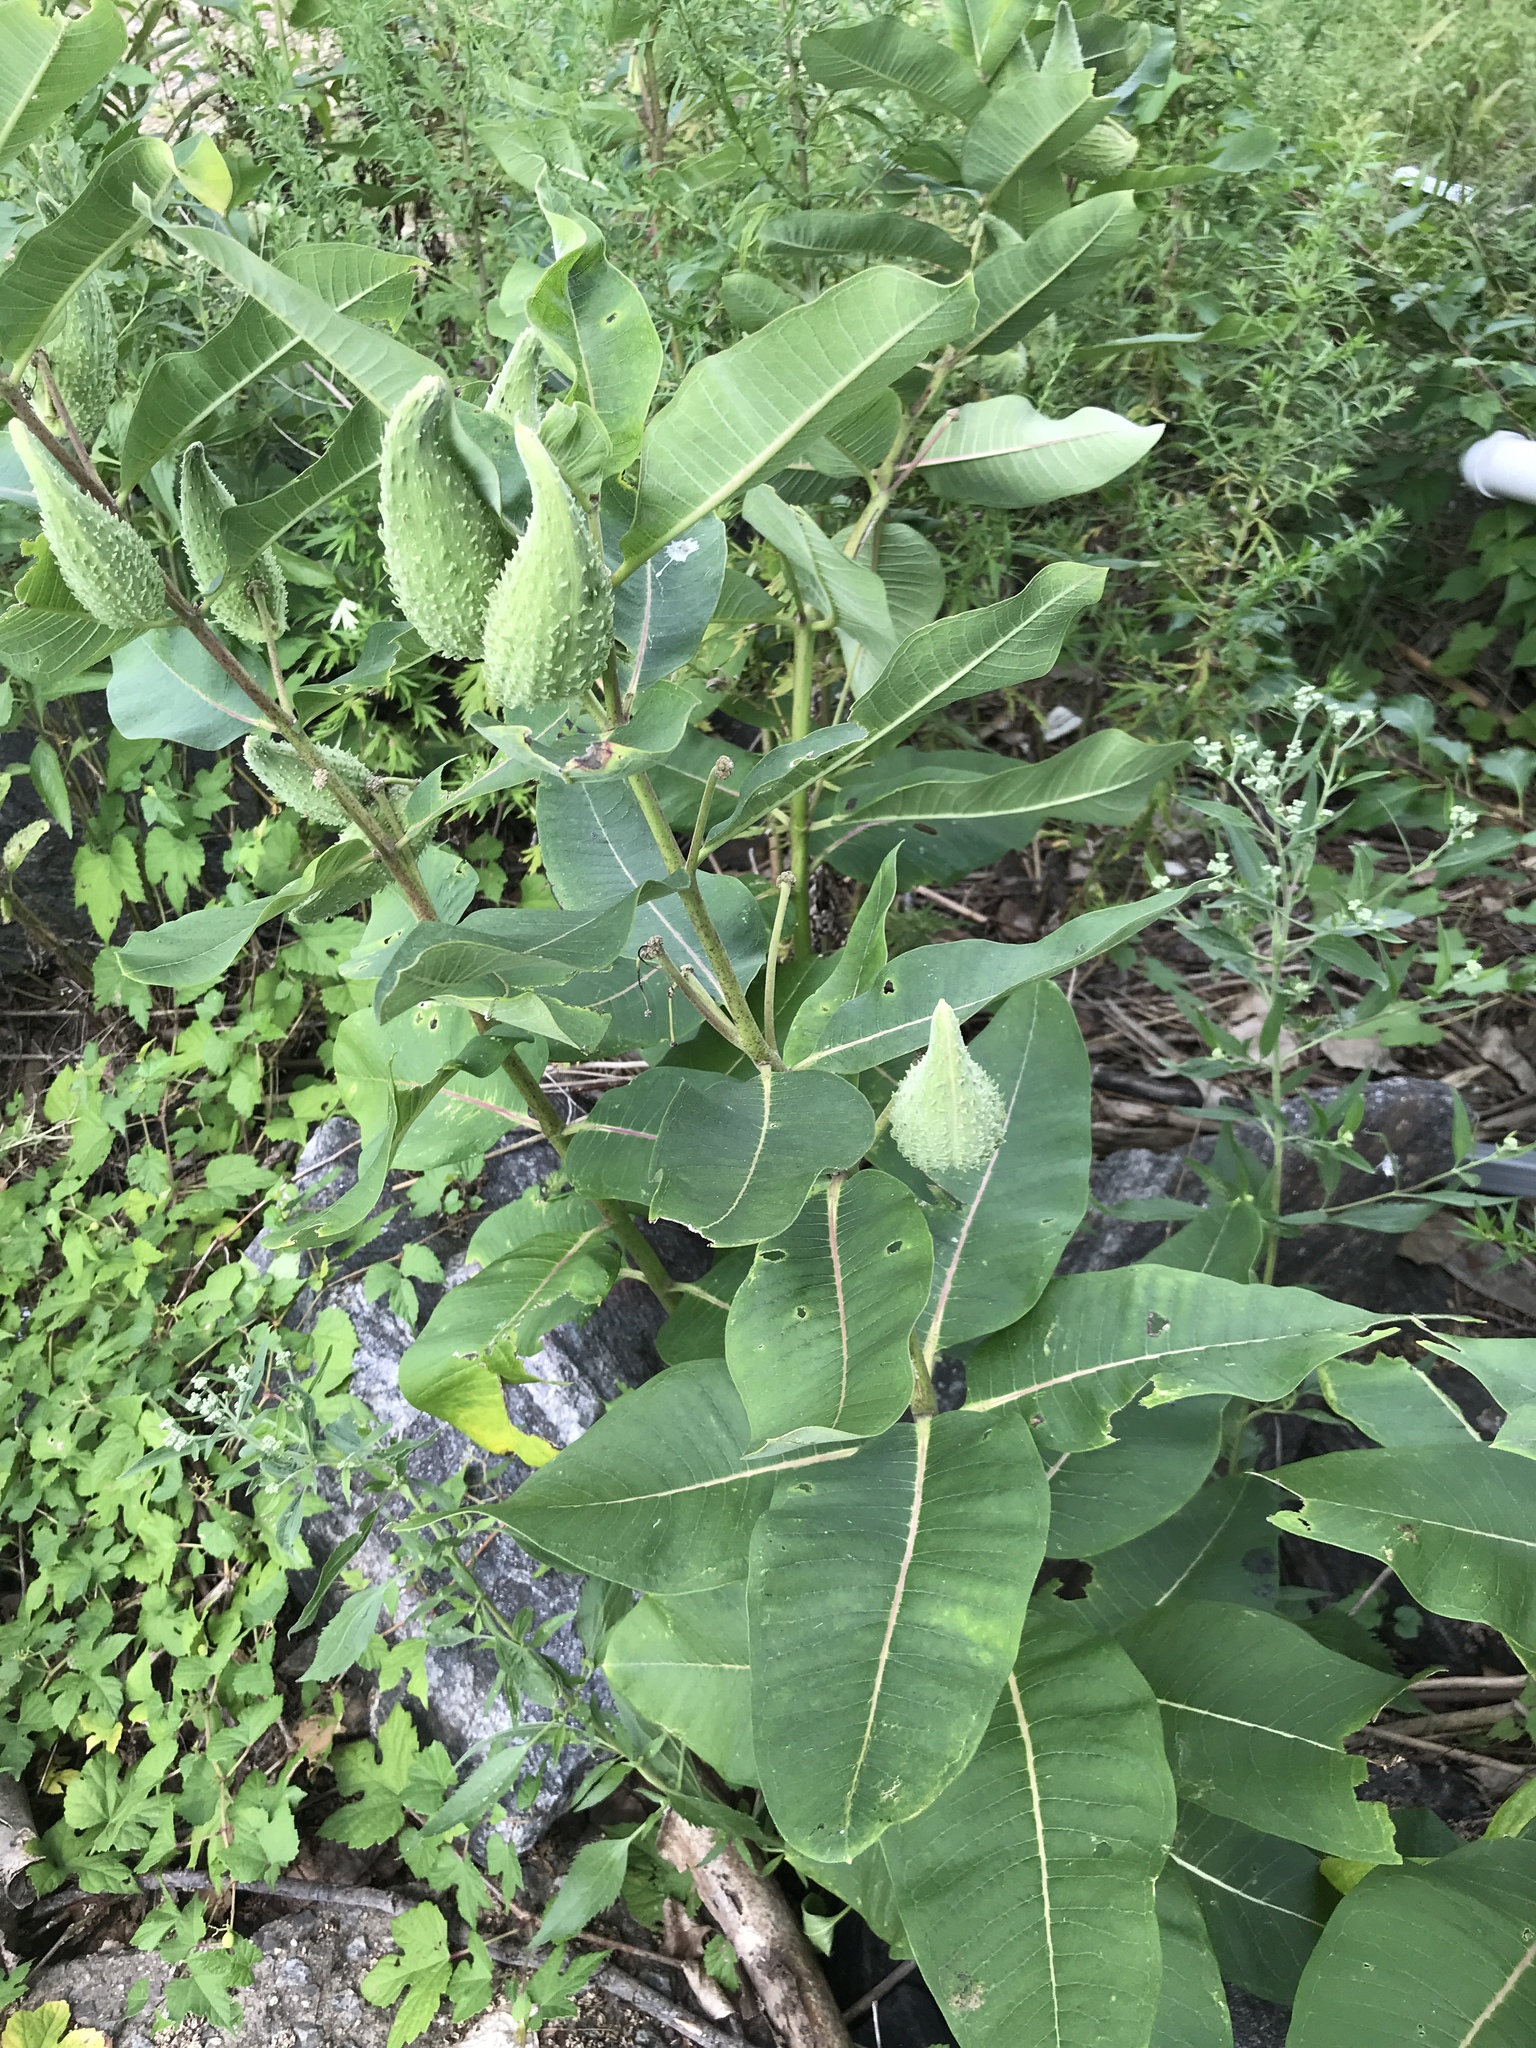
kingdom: Plantae
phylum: Tracheophyta
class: Magnoliopsida
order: Gentianales
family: Apocynaceae
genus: Asclepias
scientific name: Asclepias syriaca
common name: Common milkweed
